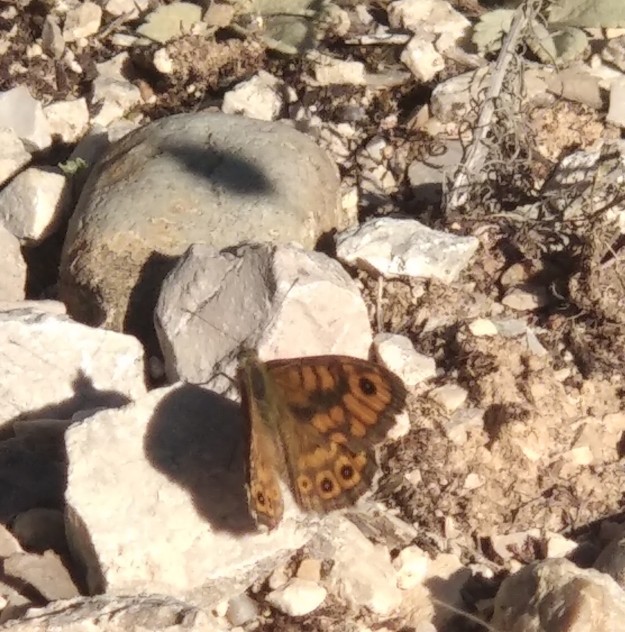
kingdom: Animalia
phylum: Arthropoda
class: Insecta
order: Lepidoptera
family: Nymphalidae
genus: Pararge
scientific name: Pararge Lasiommata megera
